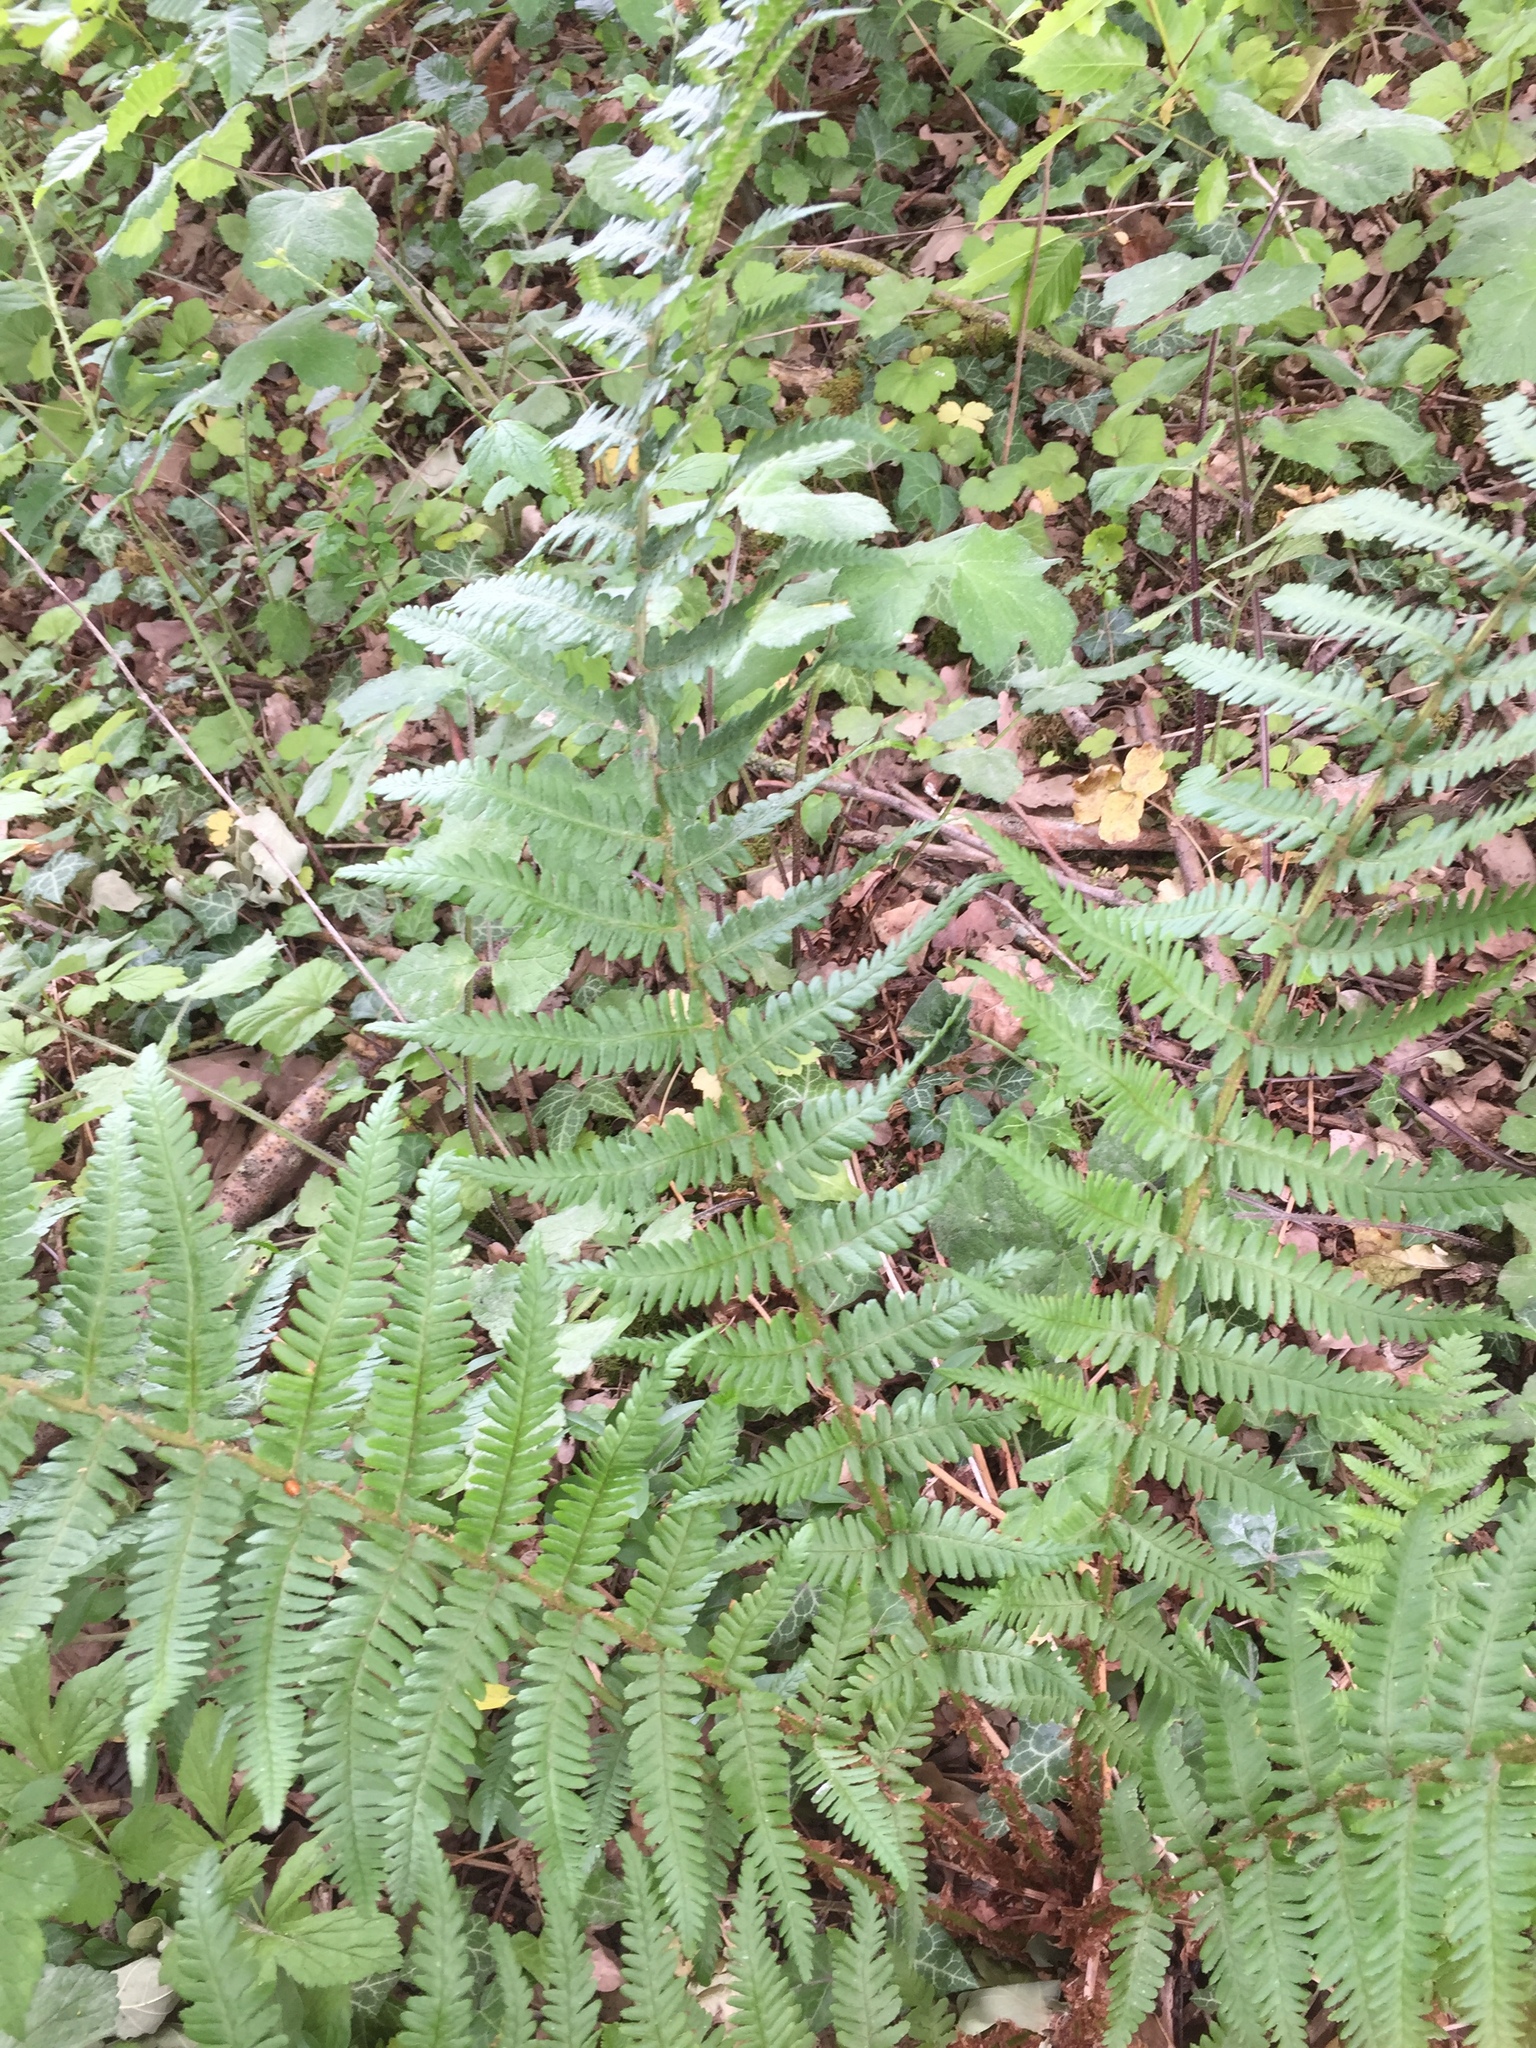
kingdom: Plantae
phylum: Tracheophyta
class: Polypodiopsida
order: Polypodiales
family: Dryopteridaceae
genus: Dryopteris
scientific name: Dryopteris filix-mas
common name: Male fern
